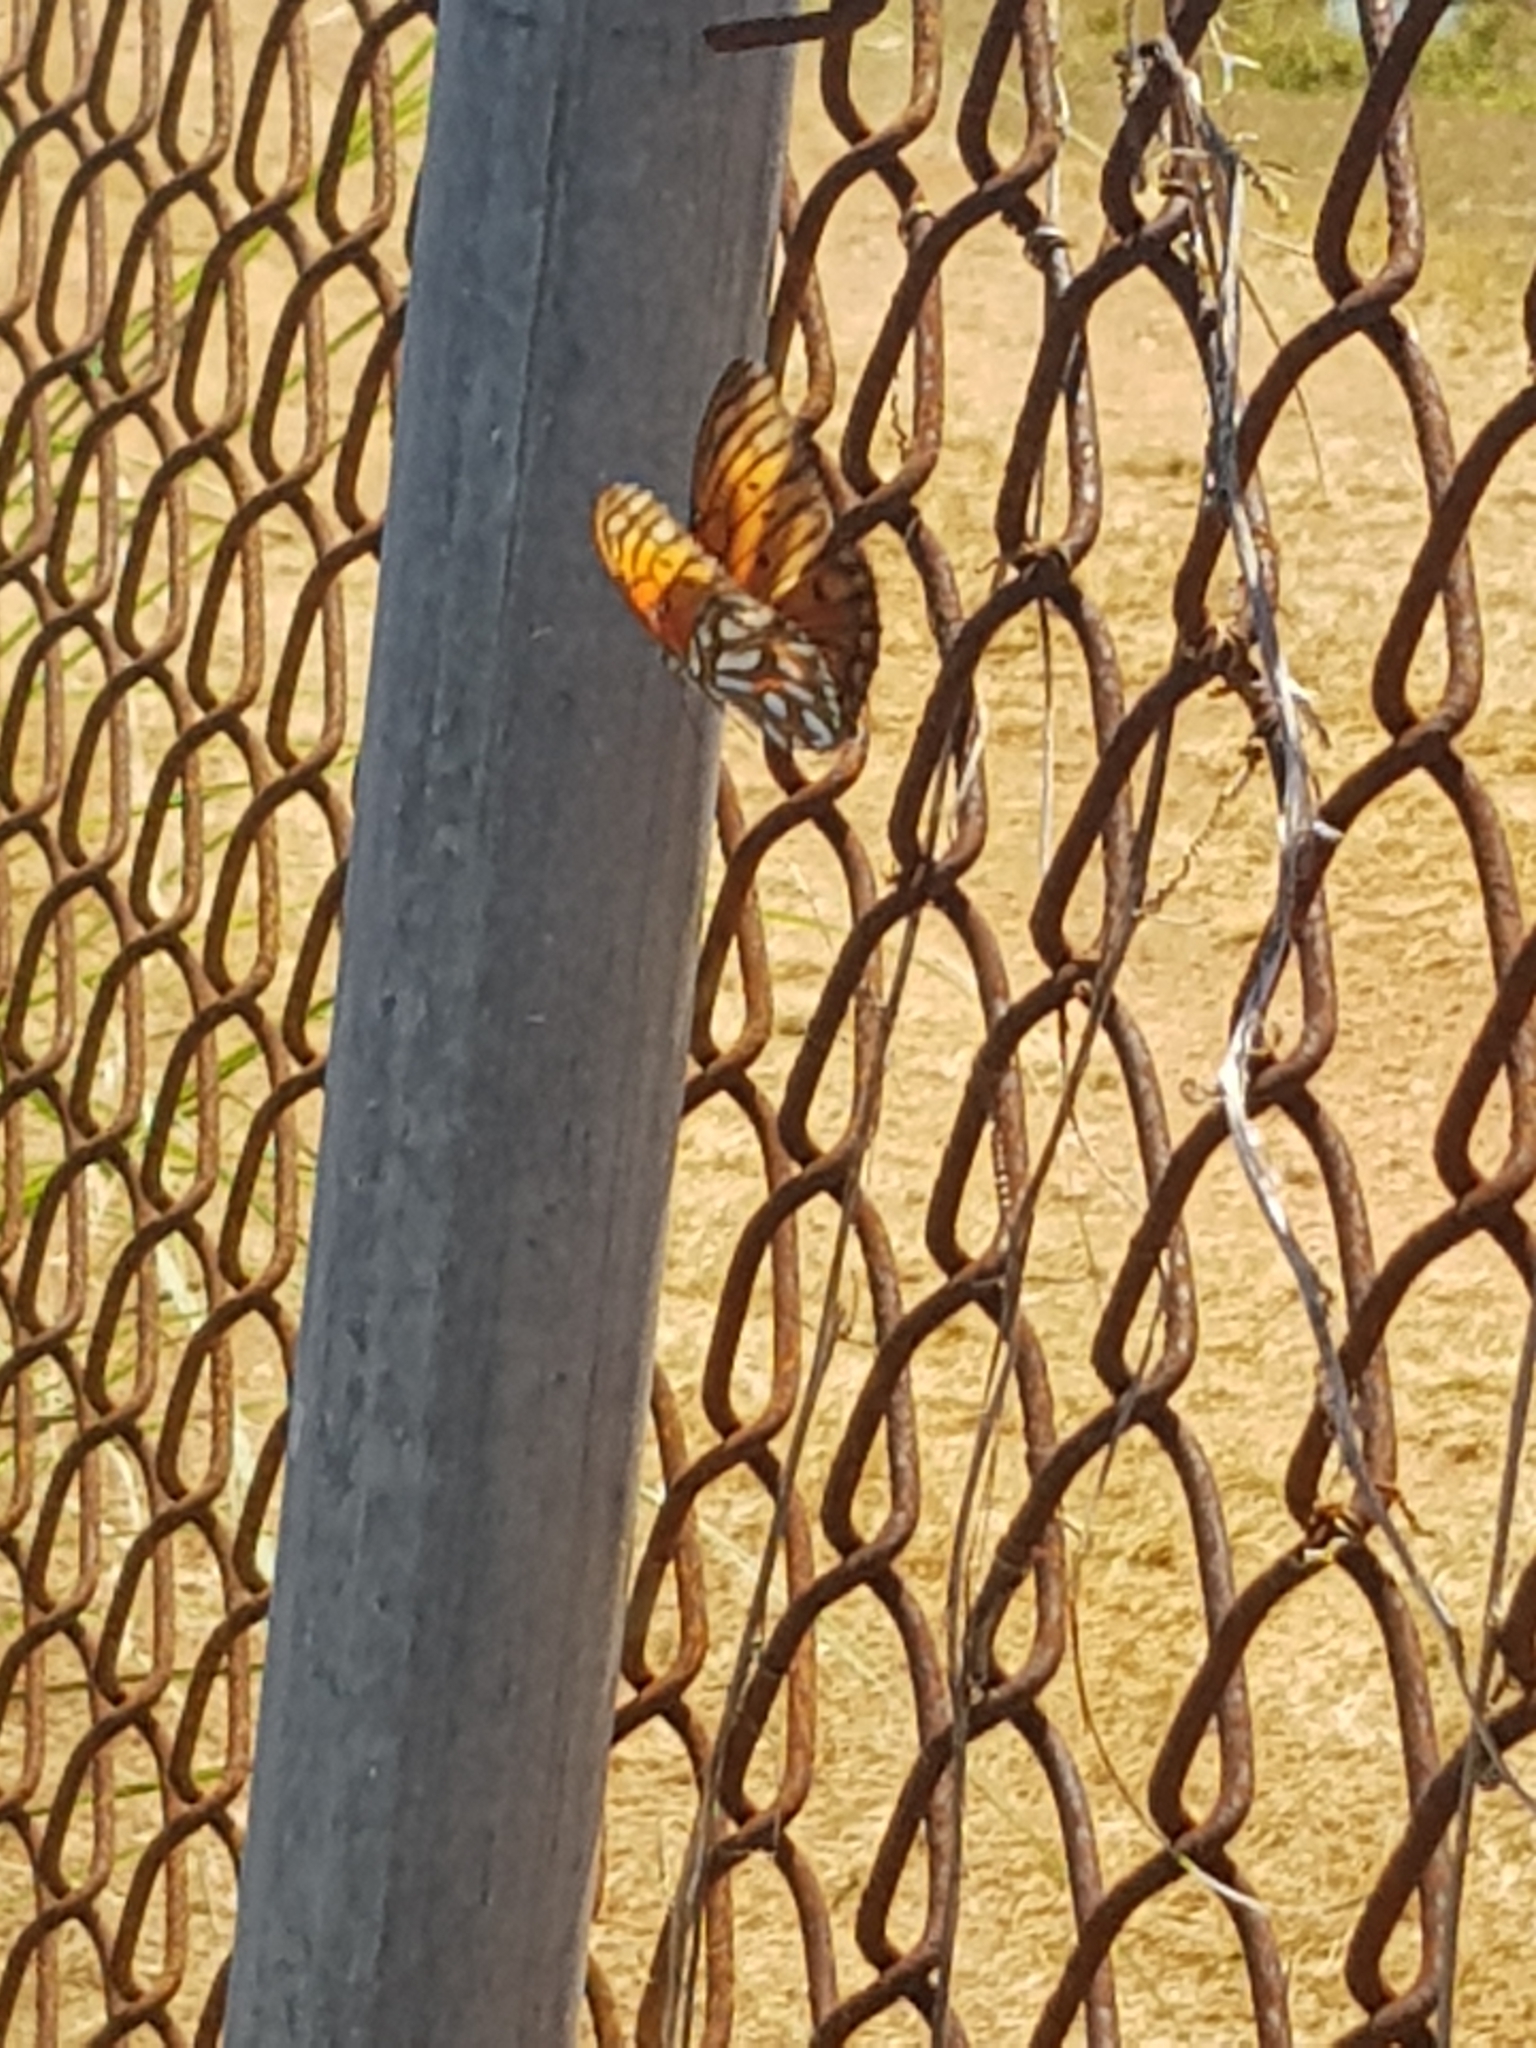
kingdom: Animalia
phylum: Arthropoda
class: Insecta
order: Lepidoptera
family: Nymphalidae
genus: Dione
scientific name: Dione vanillae
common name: Gulf fritillary
